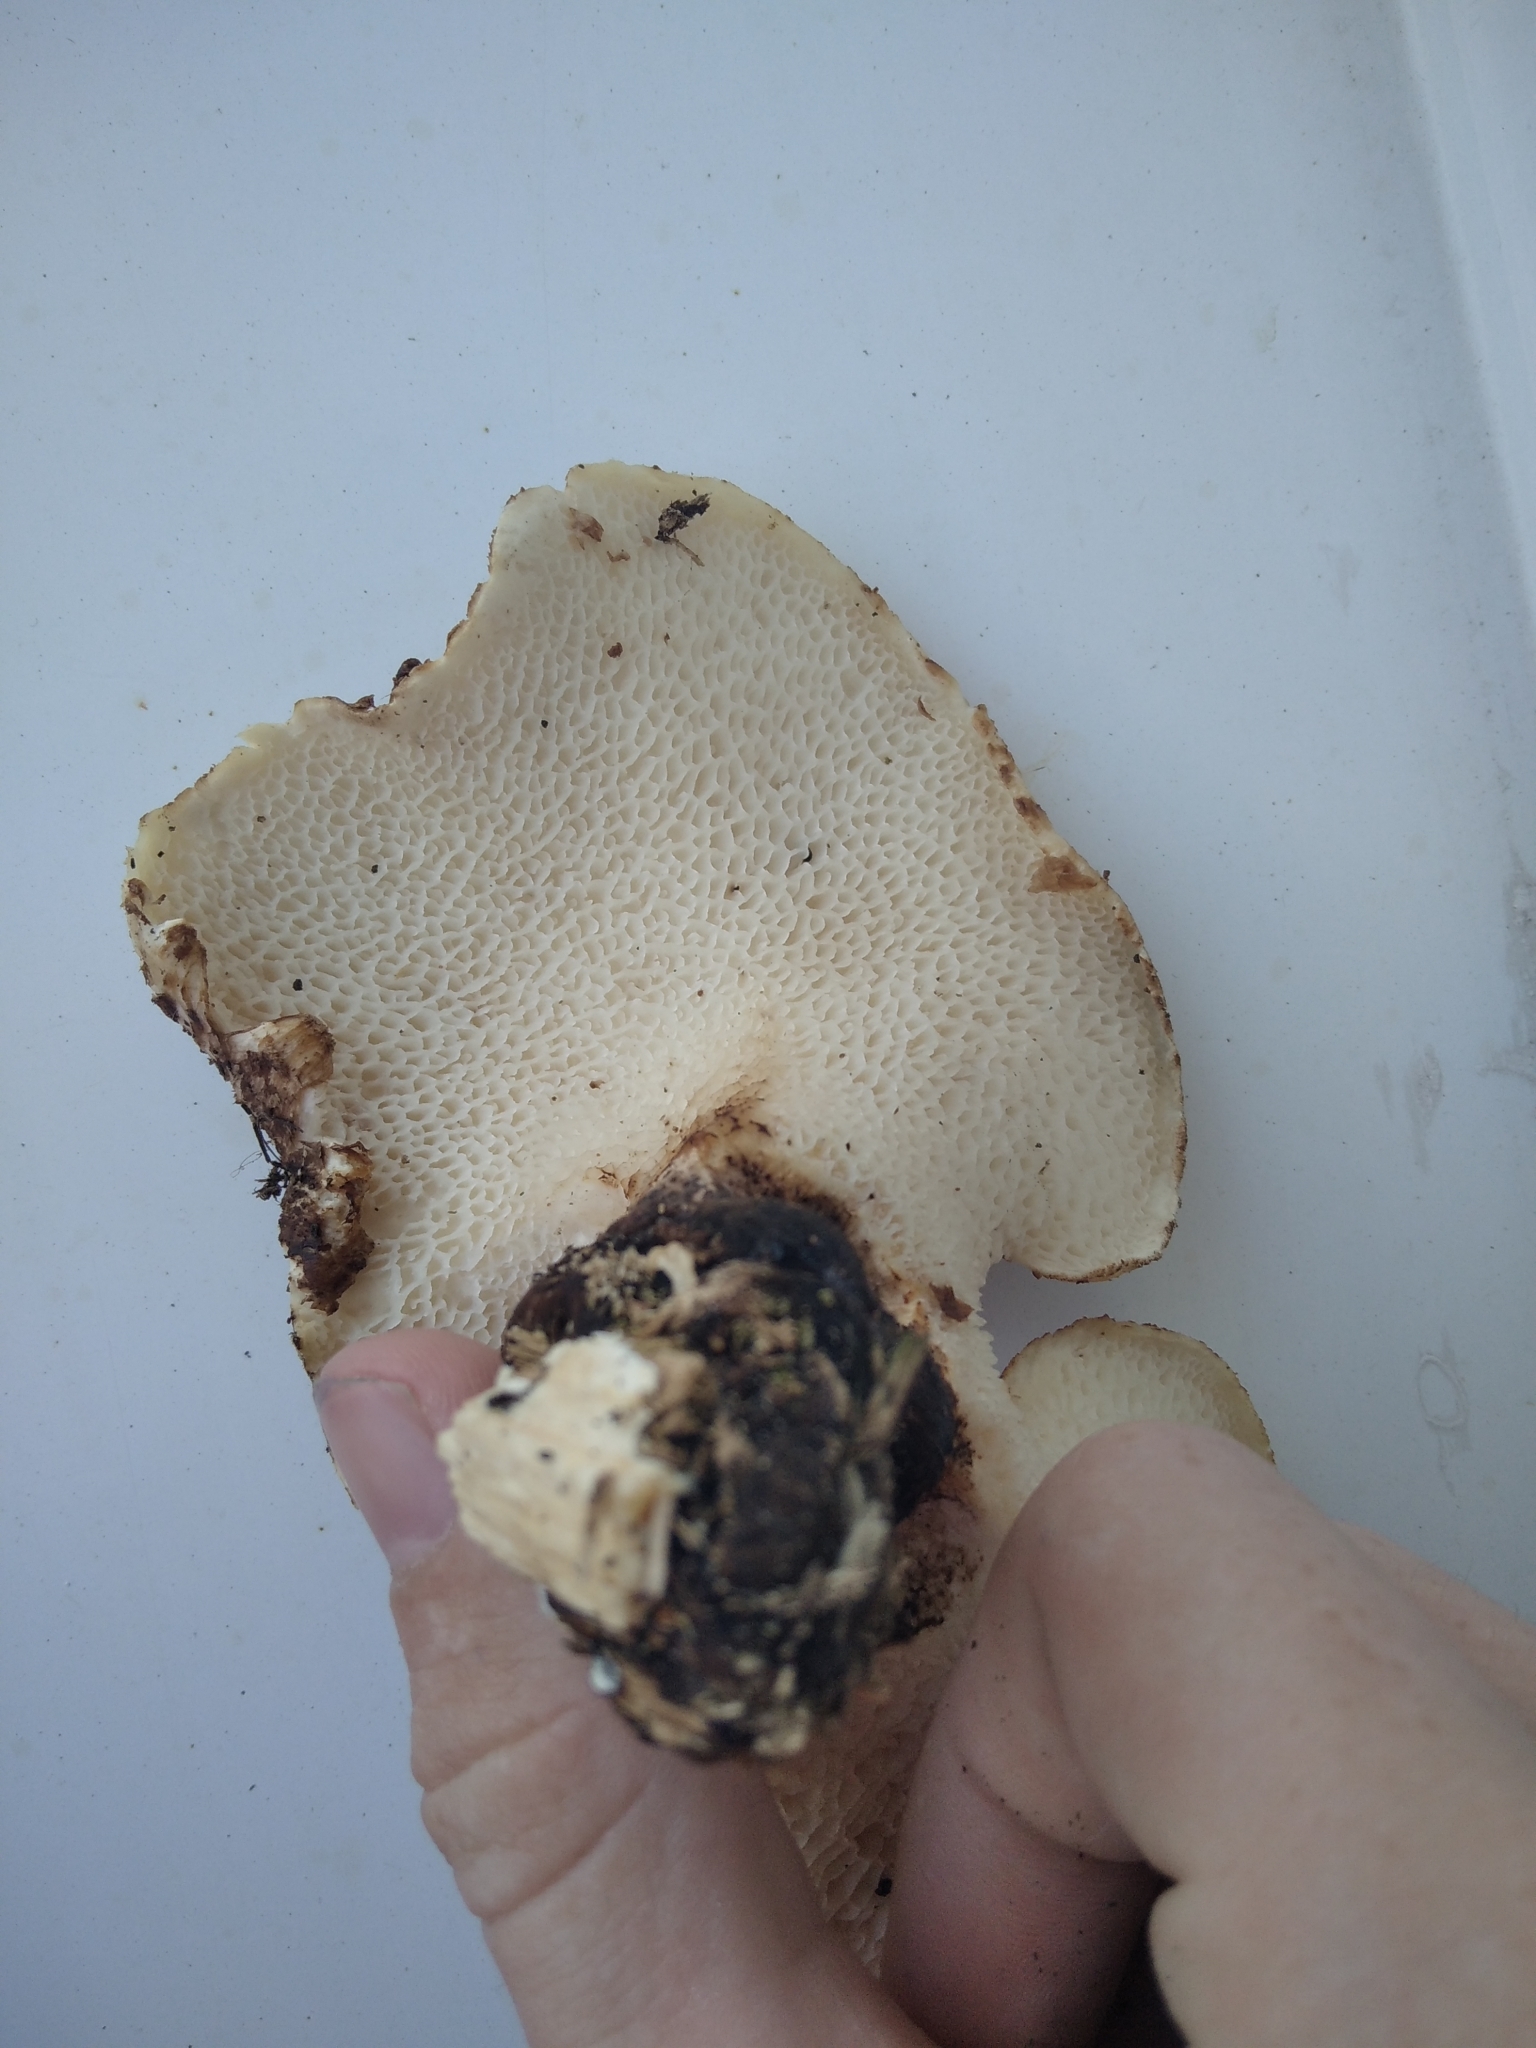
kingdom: Fungi
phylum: Basidiomycota
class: Agaricomycetes
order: Polyporales
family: Polyporaceae
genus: Cerioporus
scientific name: Cerioporus squamosus
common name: Dryad's saddle
